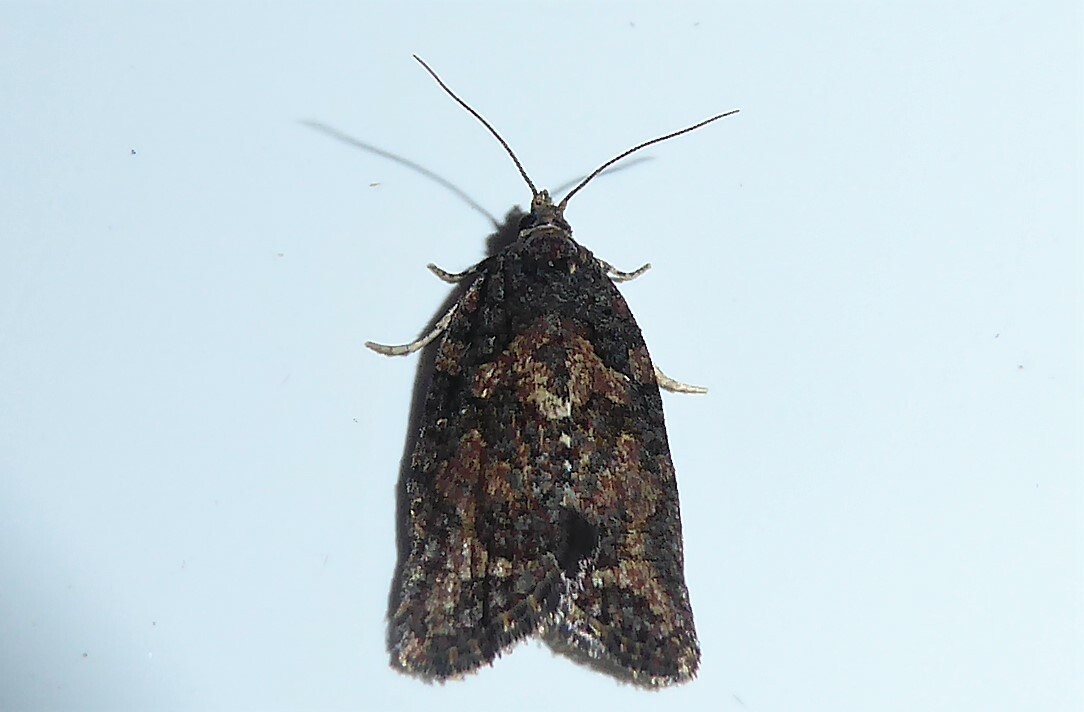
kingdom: Animalia
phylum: Arthropoda
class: Insecta
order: Lepidoptera
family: Tortricidae
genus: Capua
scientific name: Capua intractana
